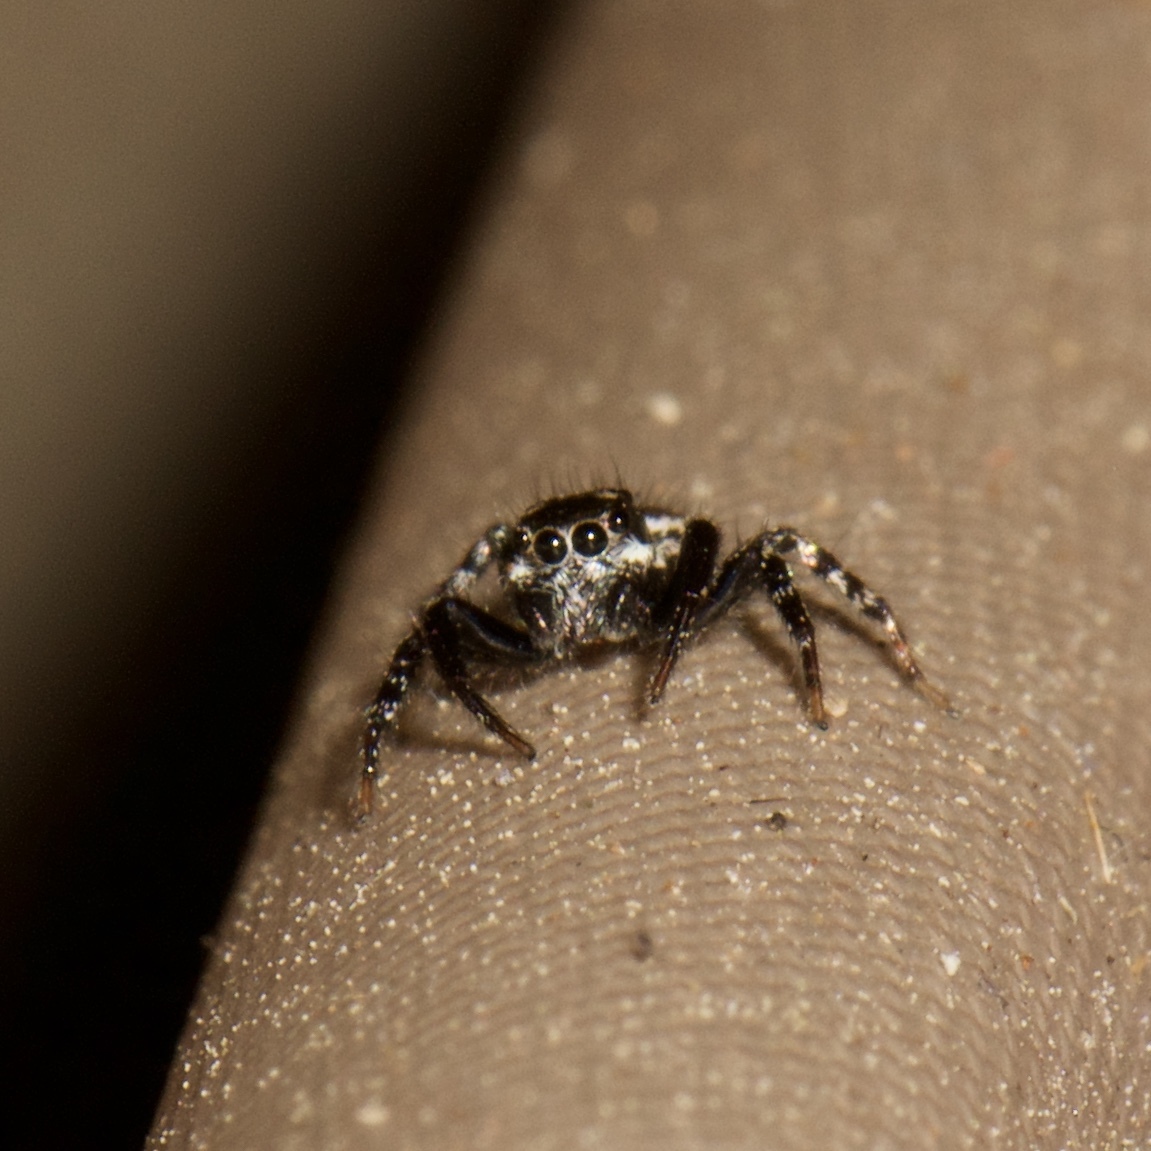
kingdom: Animalia
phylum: Arthropoda
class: Arachnida
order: Araneae
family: Salticidae
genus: Anasaitis
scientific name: Anasaitis canosa
